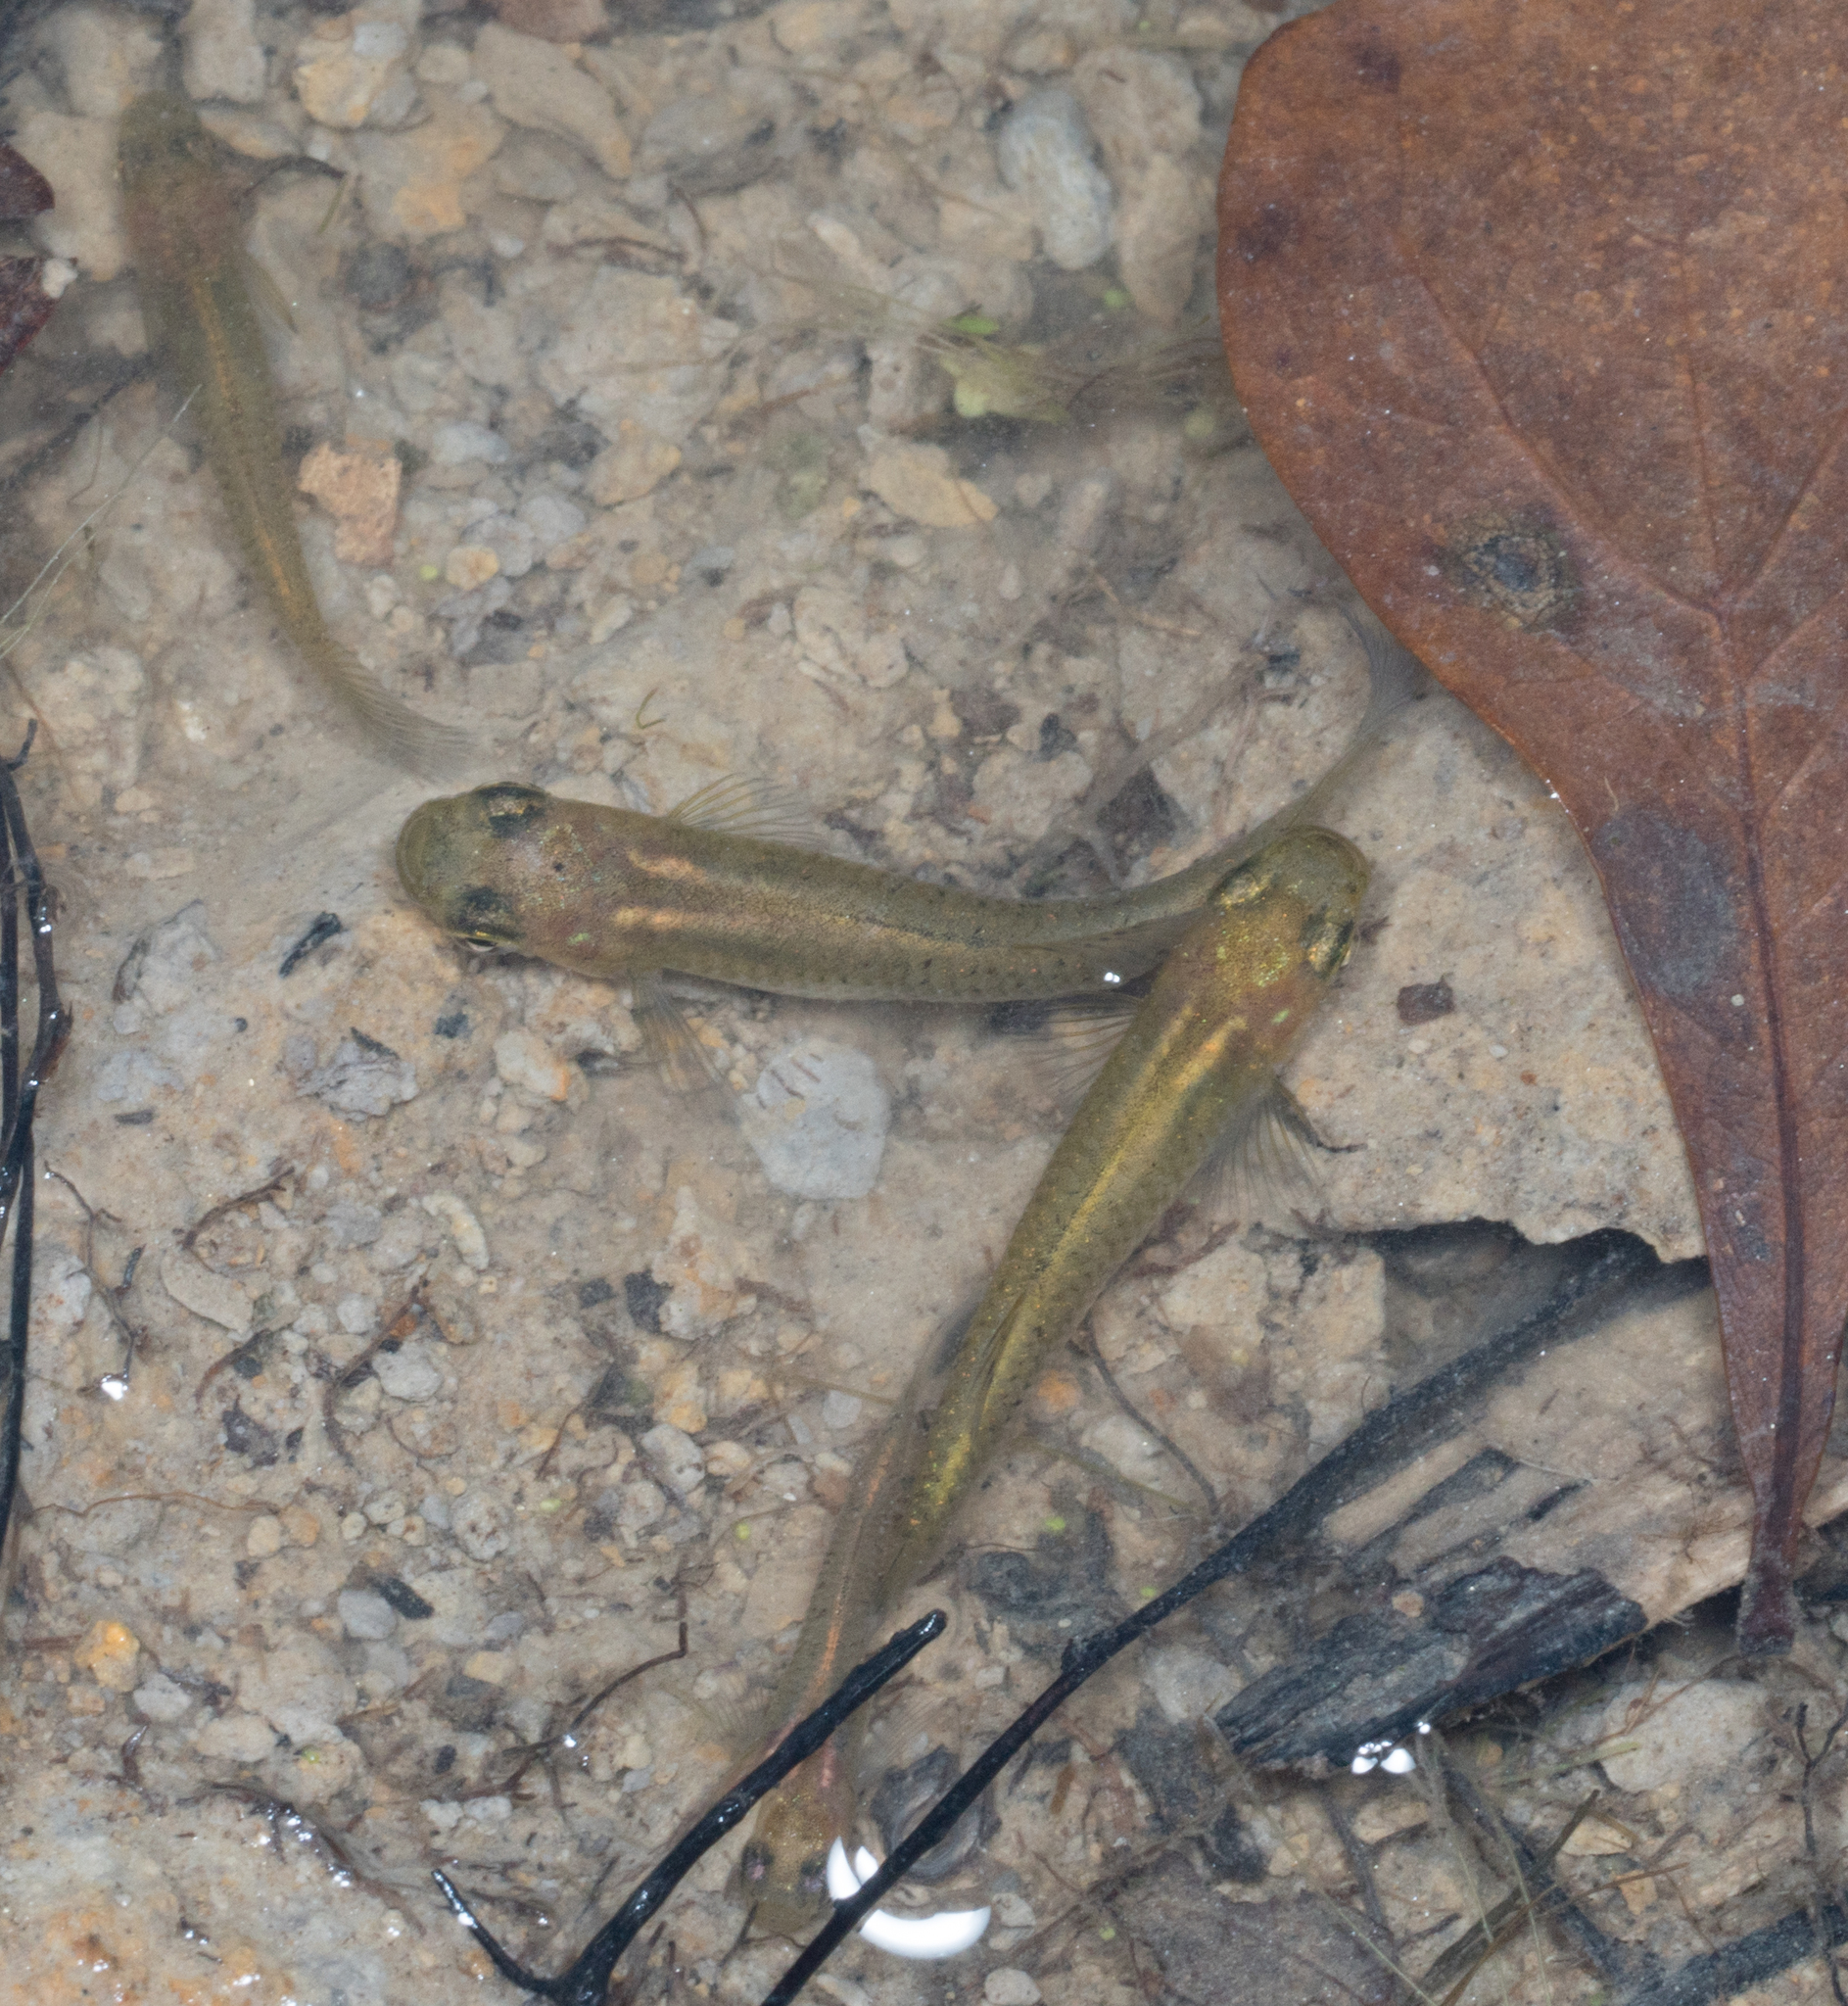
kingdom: Animalia
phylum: Chordata
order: Cyprinodontiformes
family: Poeciliidae
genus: Gambusia
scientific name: Gambusia affinis
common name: Mosquitofish
